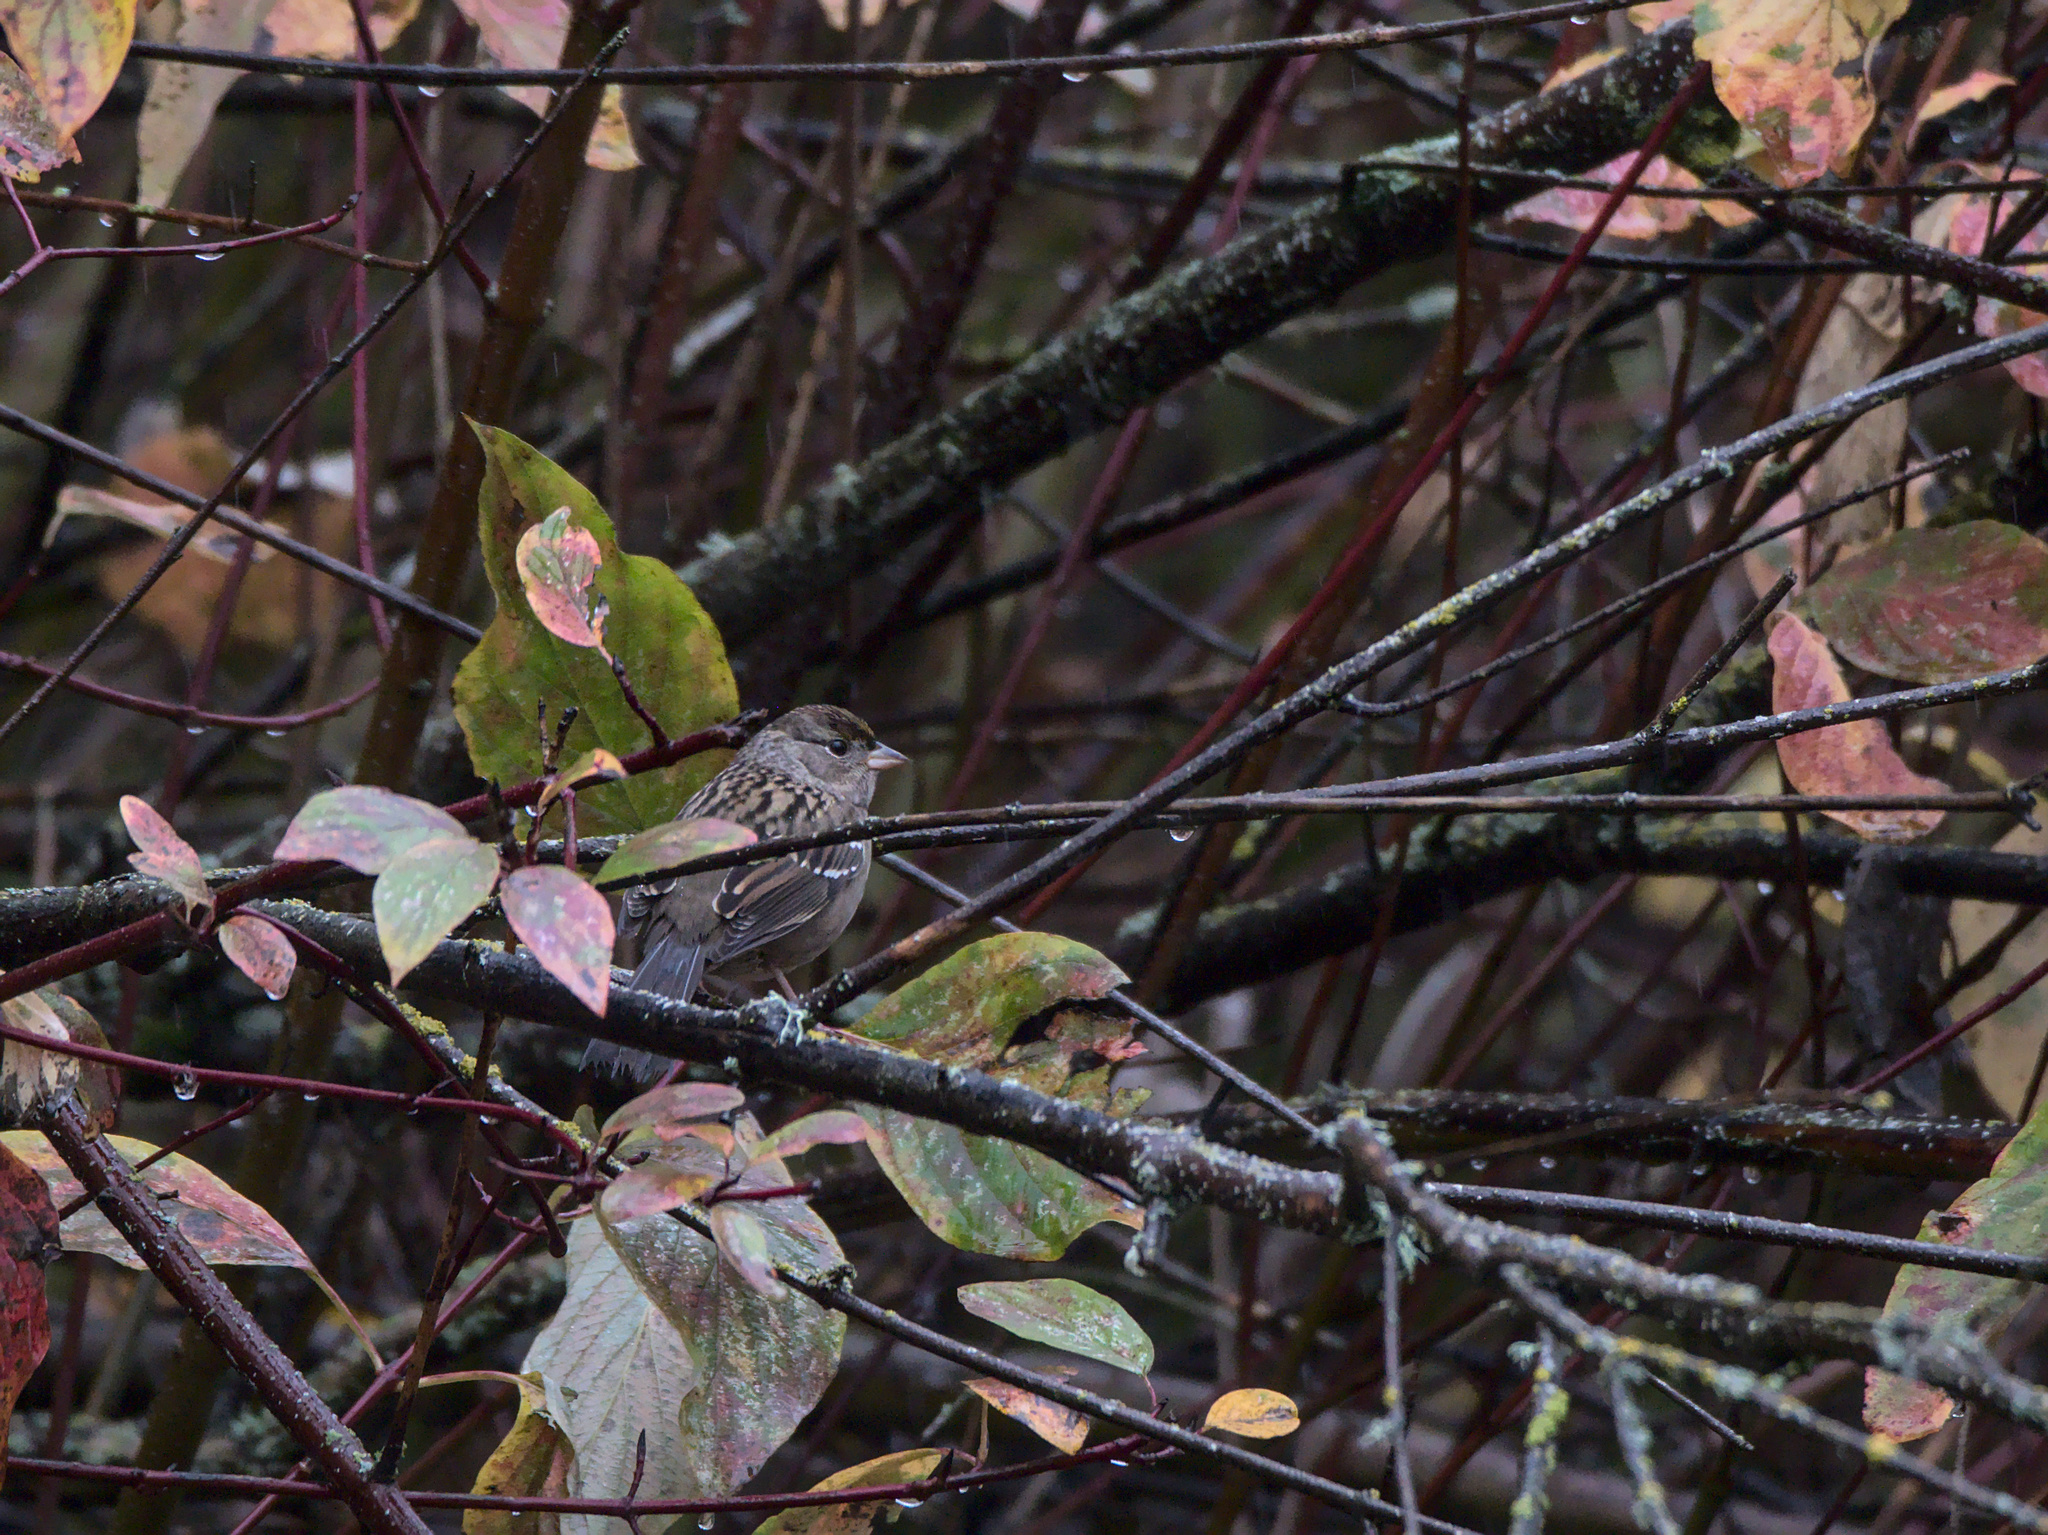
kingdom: Animalia
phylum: Chordata
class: Aves
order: Passeriformes
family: Passerellidae
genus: Zonotrichia
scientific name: Zonotrichia atricapilla
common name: Golden-crowned sparrow
